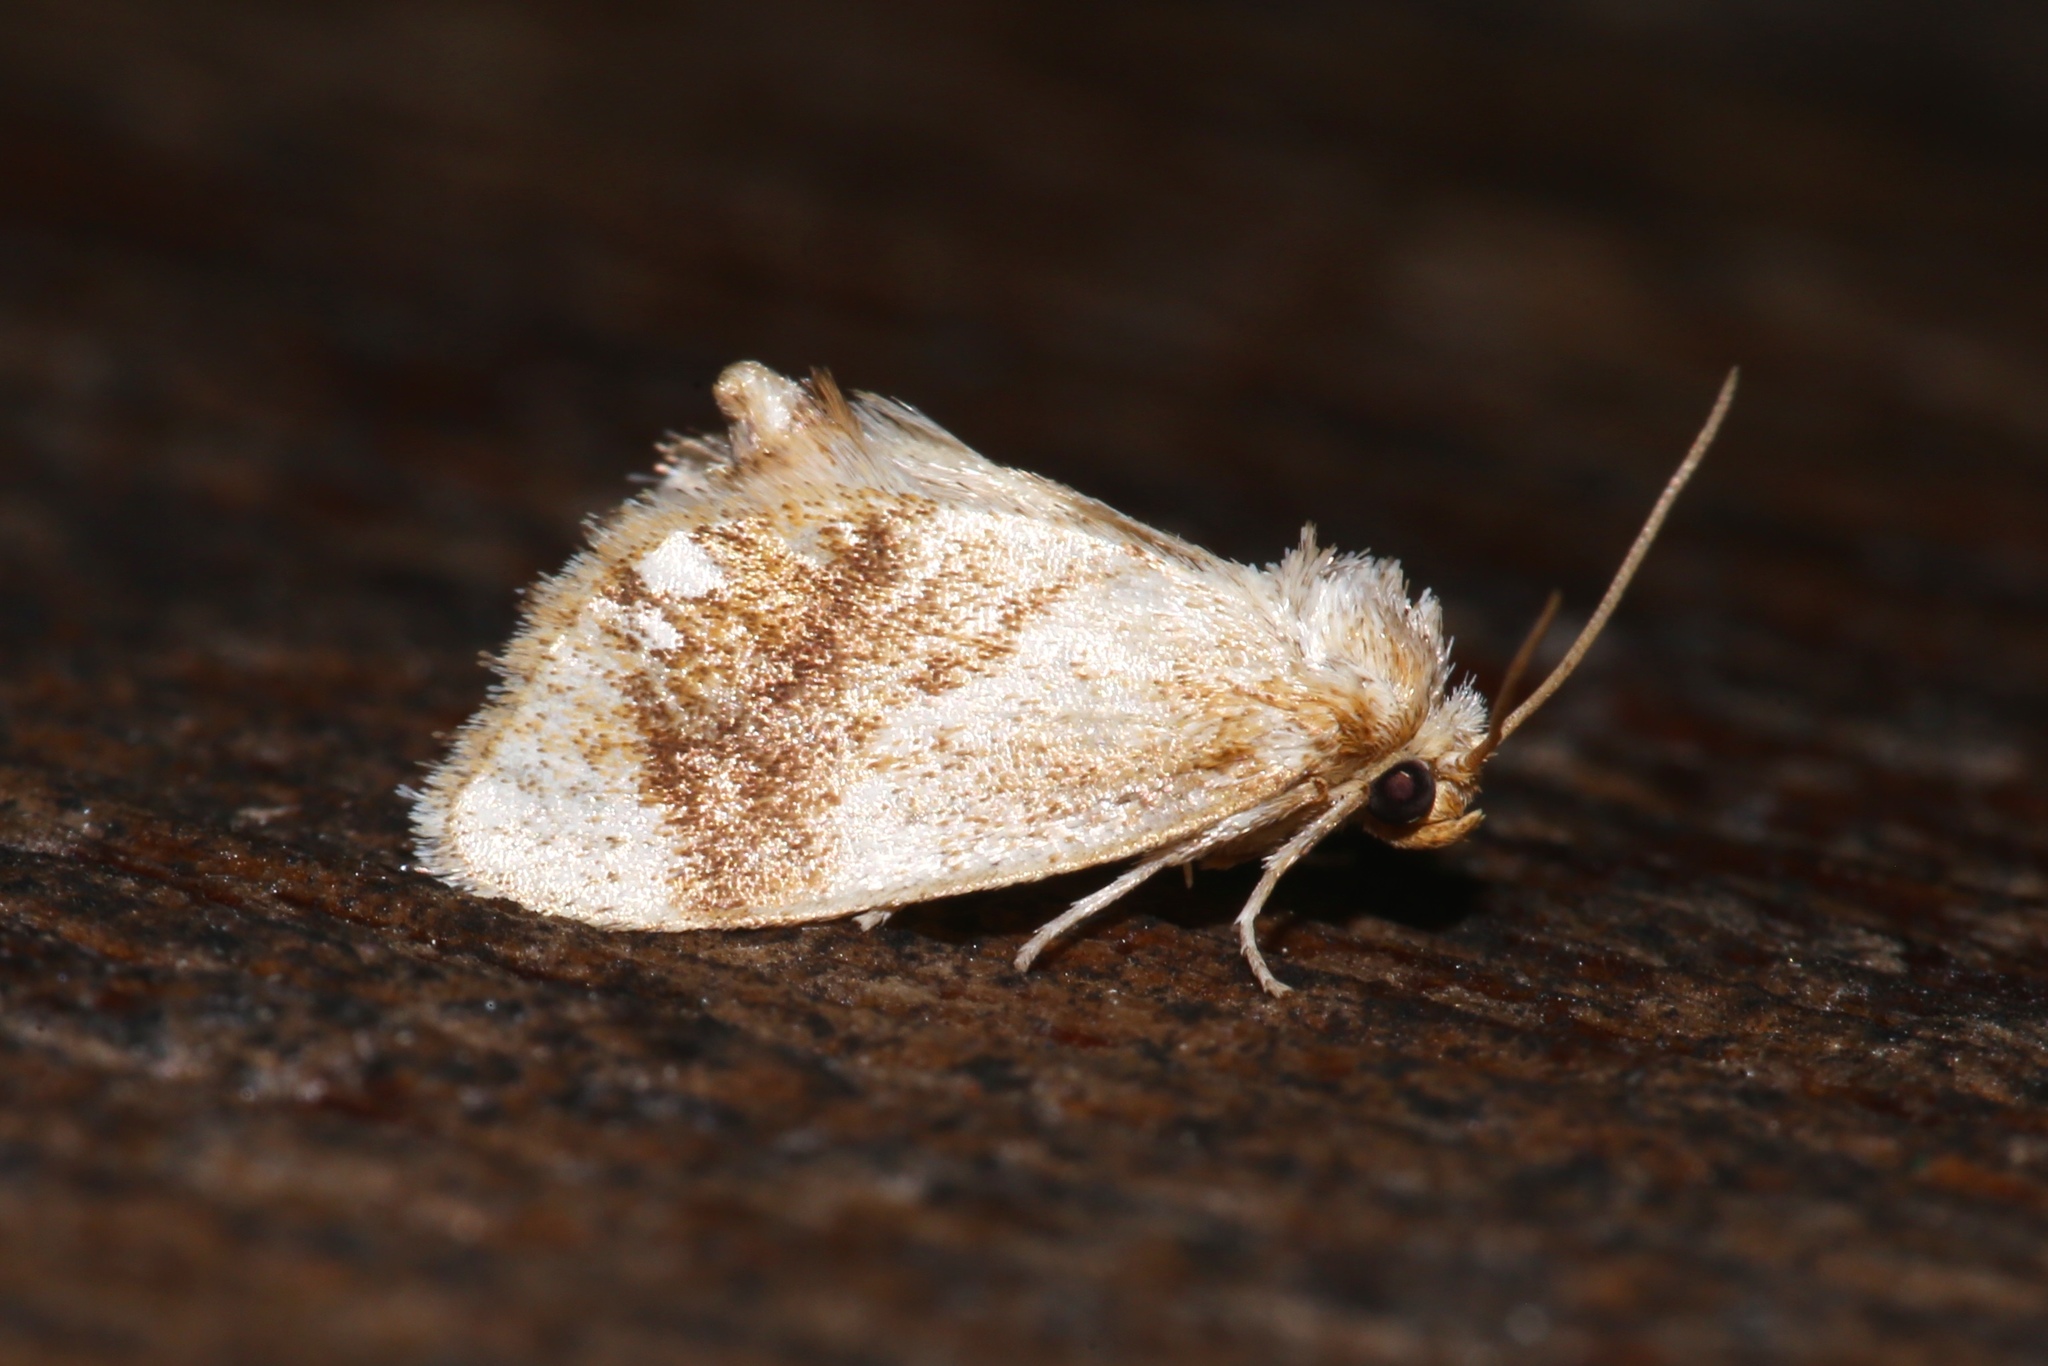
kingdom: Animalia
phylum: Arthropoda
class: Insecta
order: Lepidoptera
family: Limacodidae
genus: Packardia
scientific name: Packardia geminata
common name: Jeweled tailed slug moth
